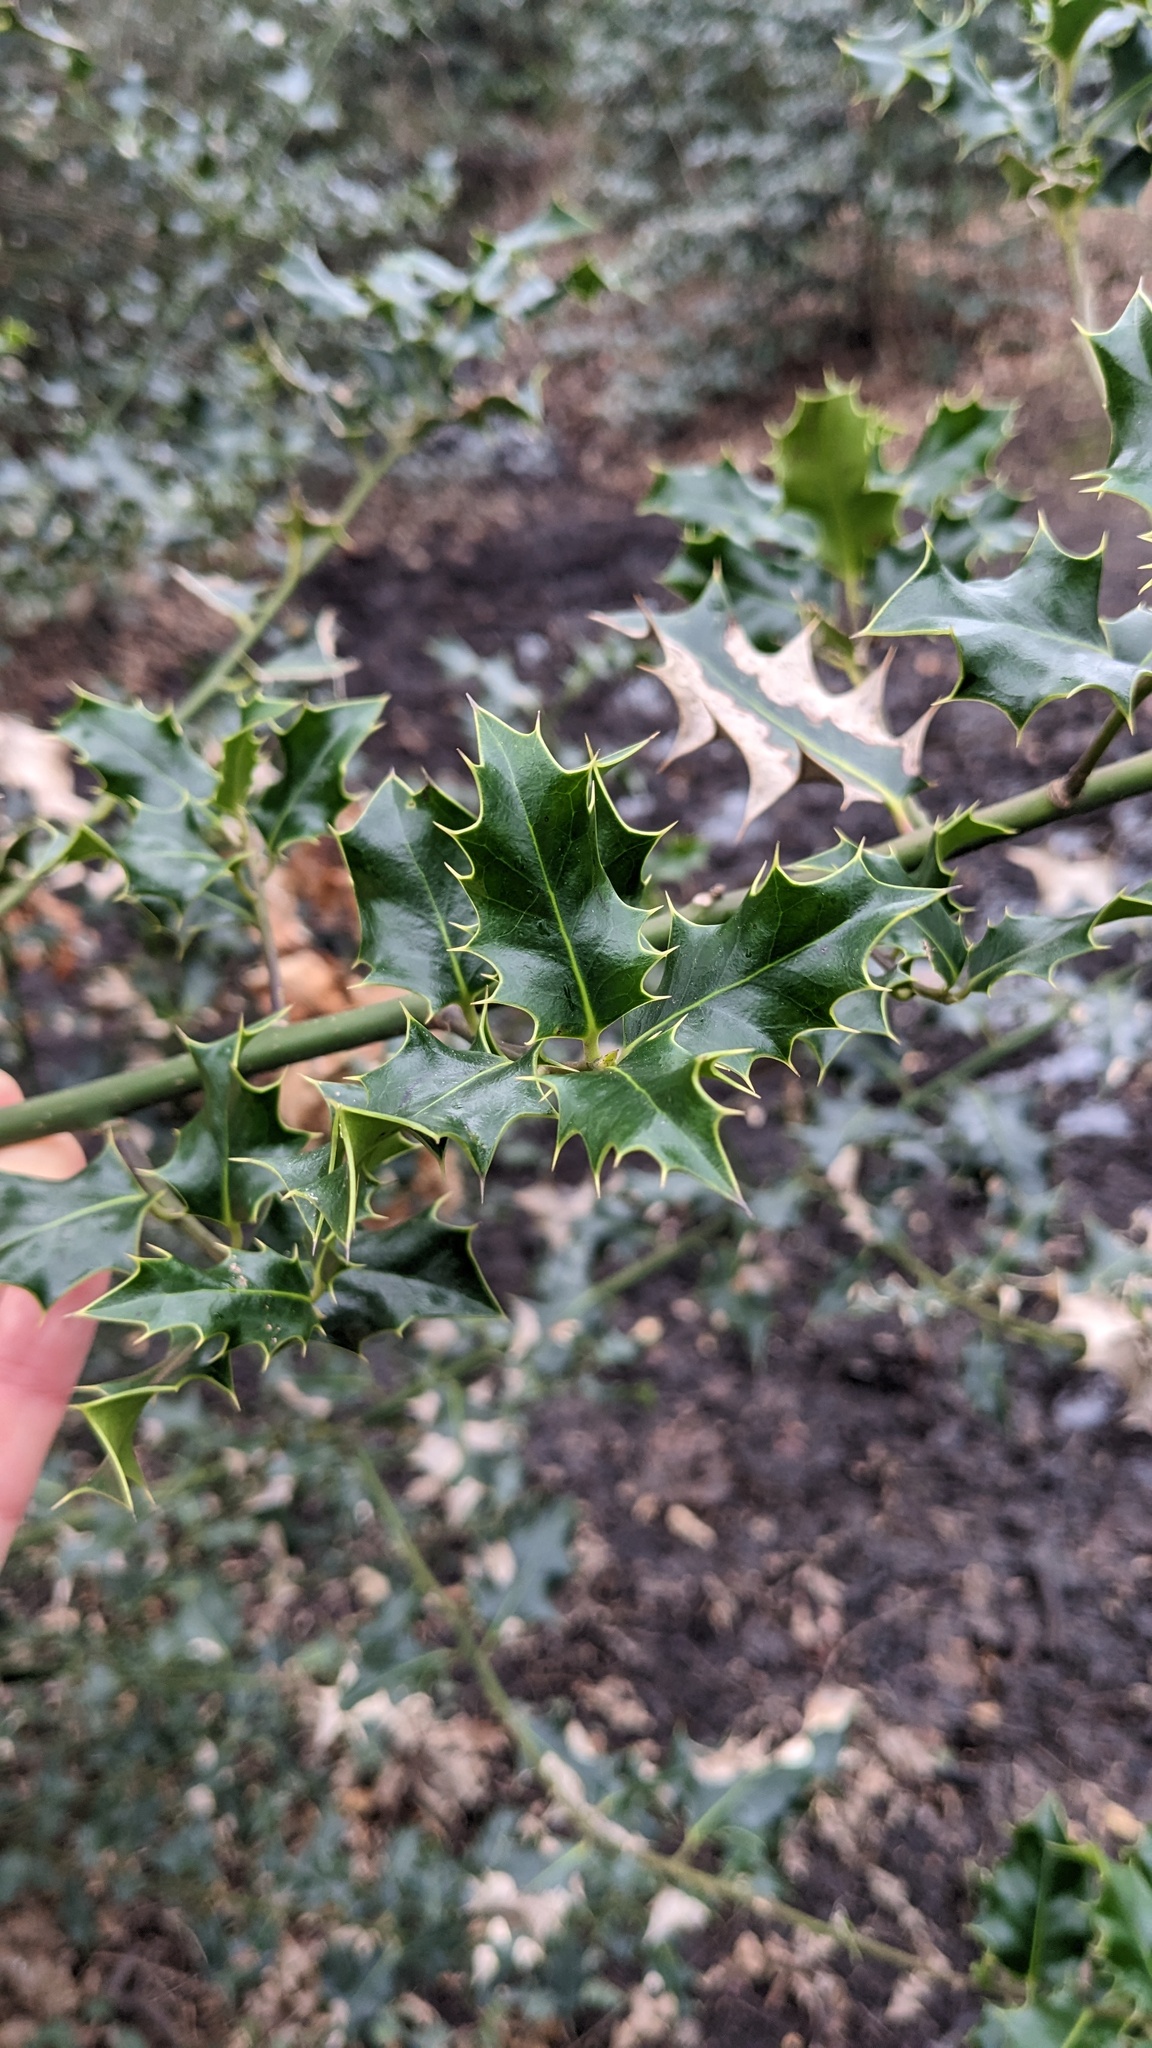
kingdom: Plantae
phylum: Tracheophyta
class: Magnoliopsida
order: Aquifoliales
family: Aquifoliaceae
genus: Ilex
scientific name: Ilex aquifolium
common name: English holly
